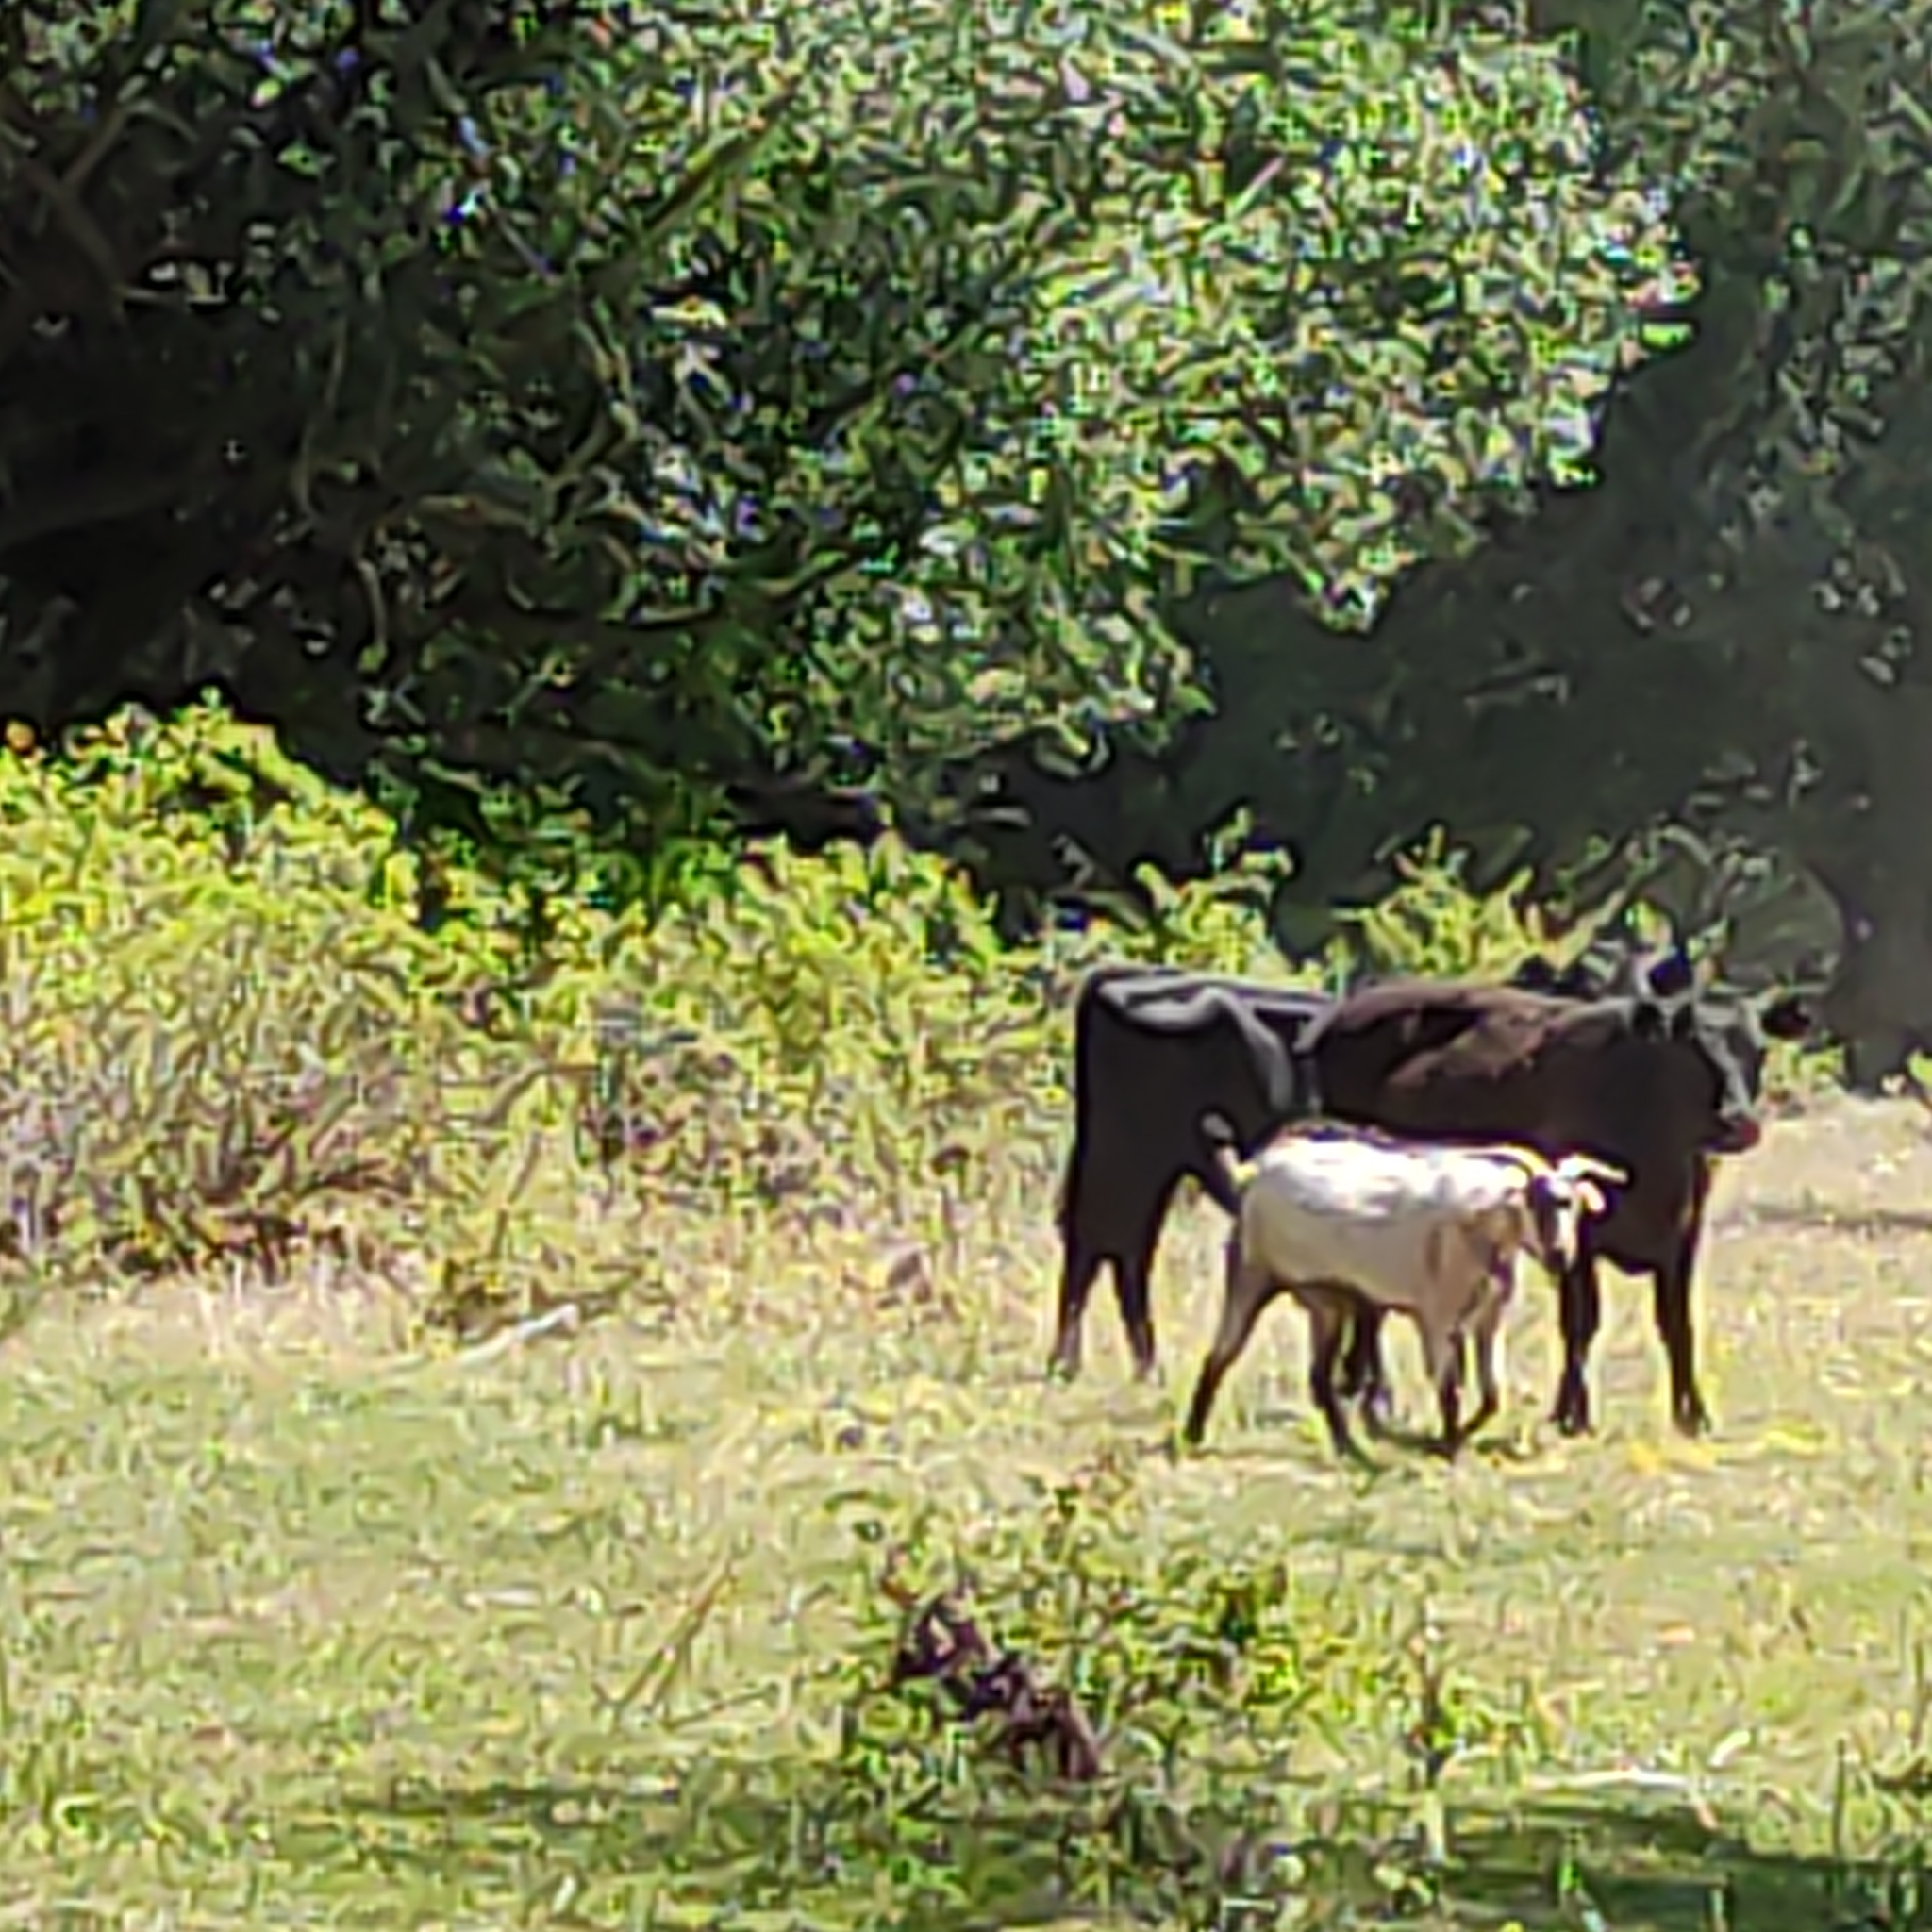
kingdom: Animalia
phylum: Chordata
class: Mammalia
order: Artiodactyla
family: Bovidae
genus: Capra
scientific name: Capra hircus
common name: Domestic goat
